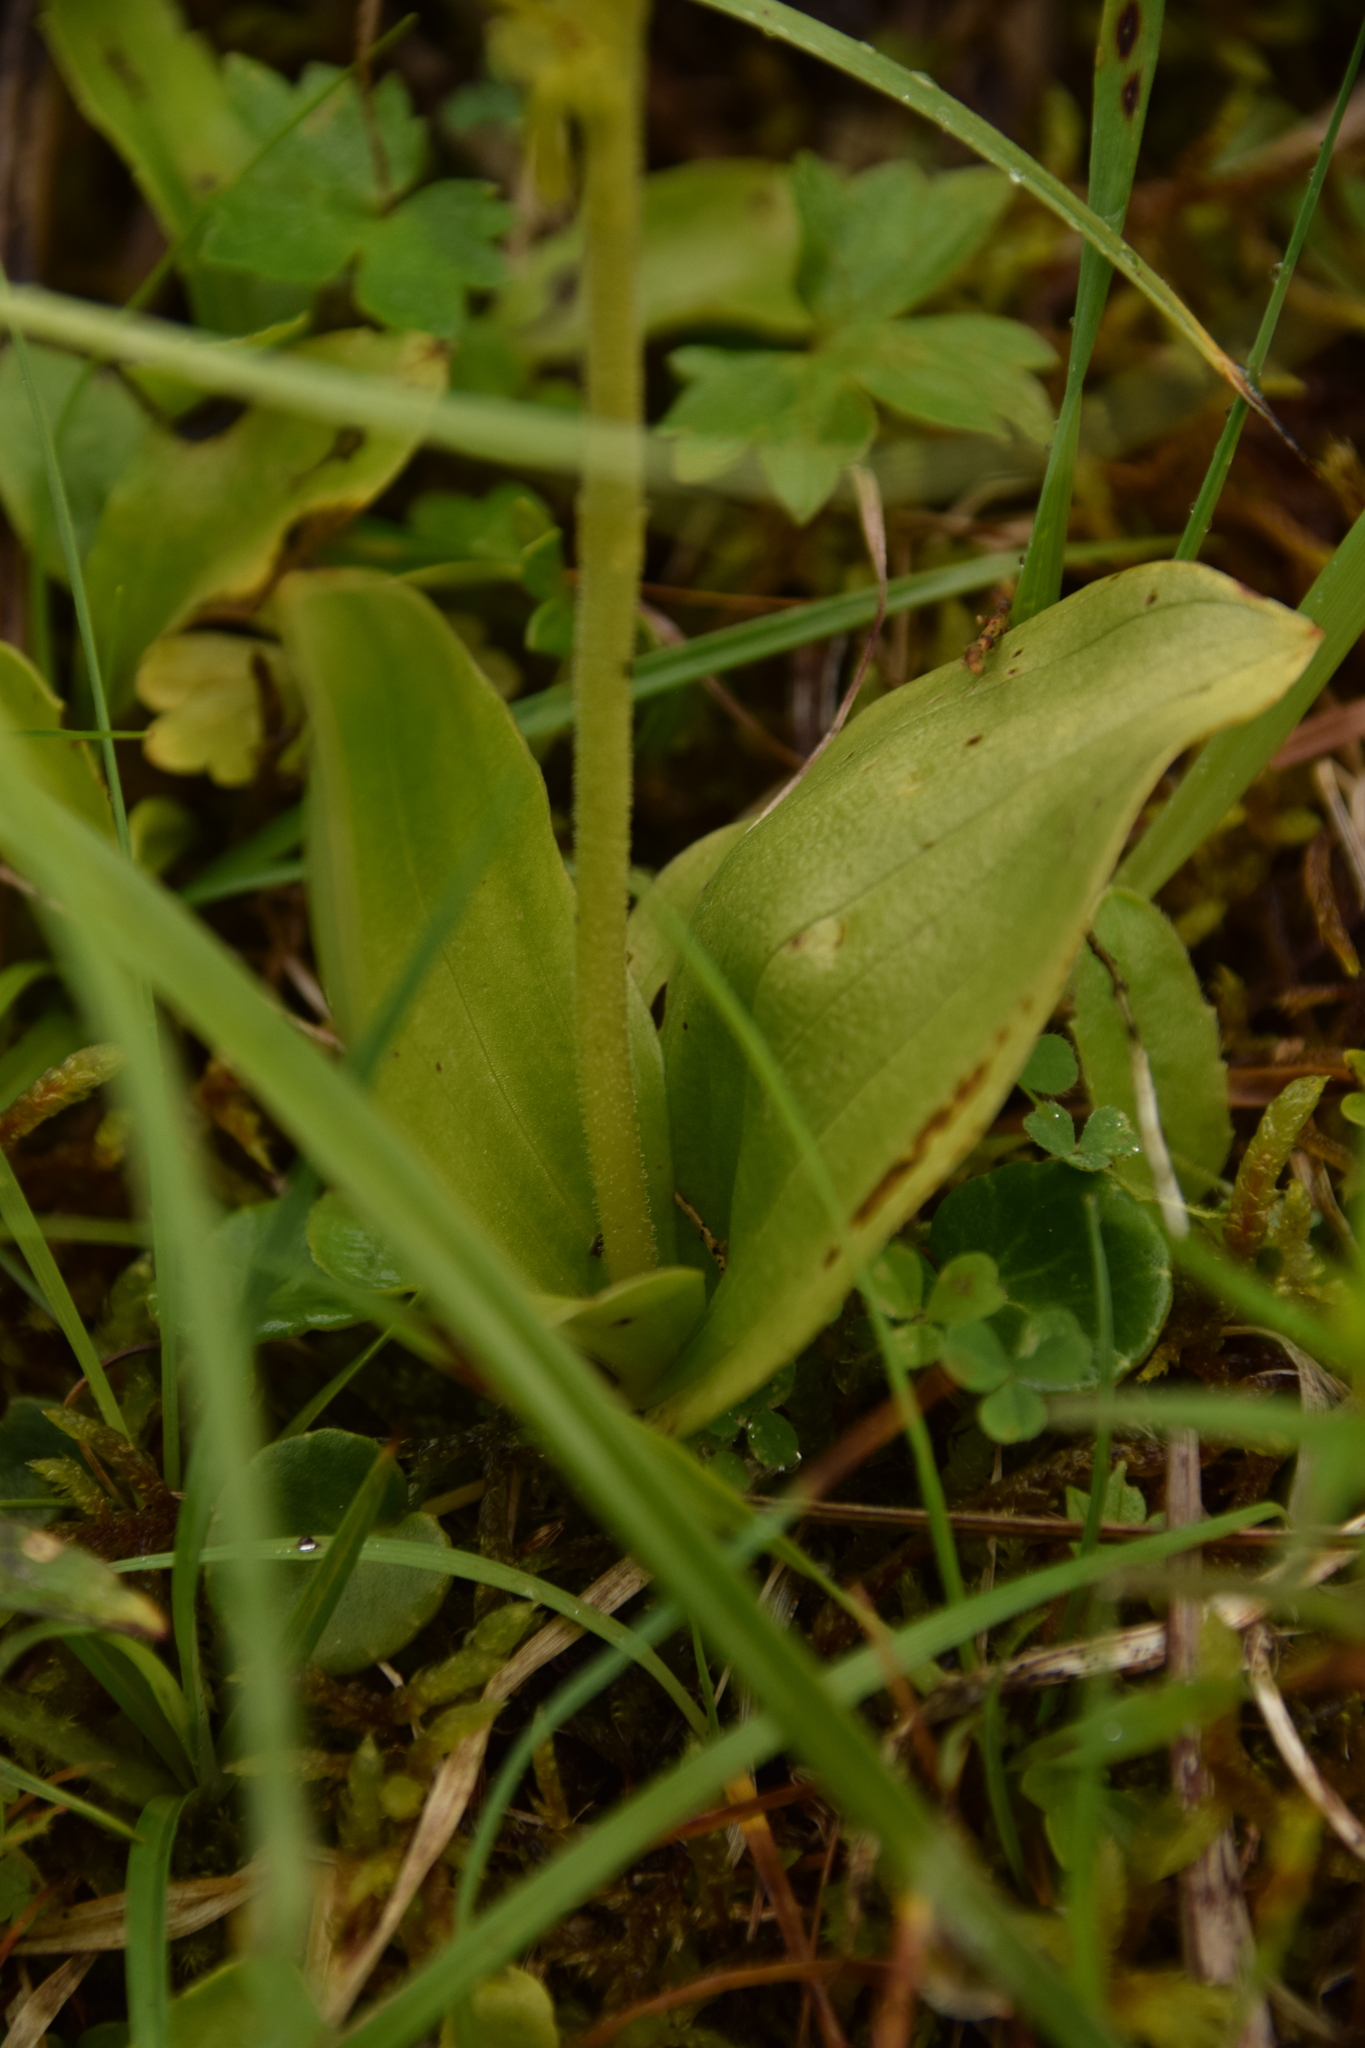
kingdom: Plantae
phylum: Tracheophyta
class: Liliopsida
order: Asparagales
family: Orchidaceae
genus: Neottia
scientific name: Neottia ovata
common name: Common twayblade
